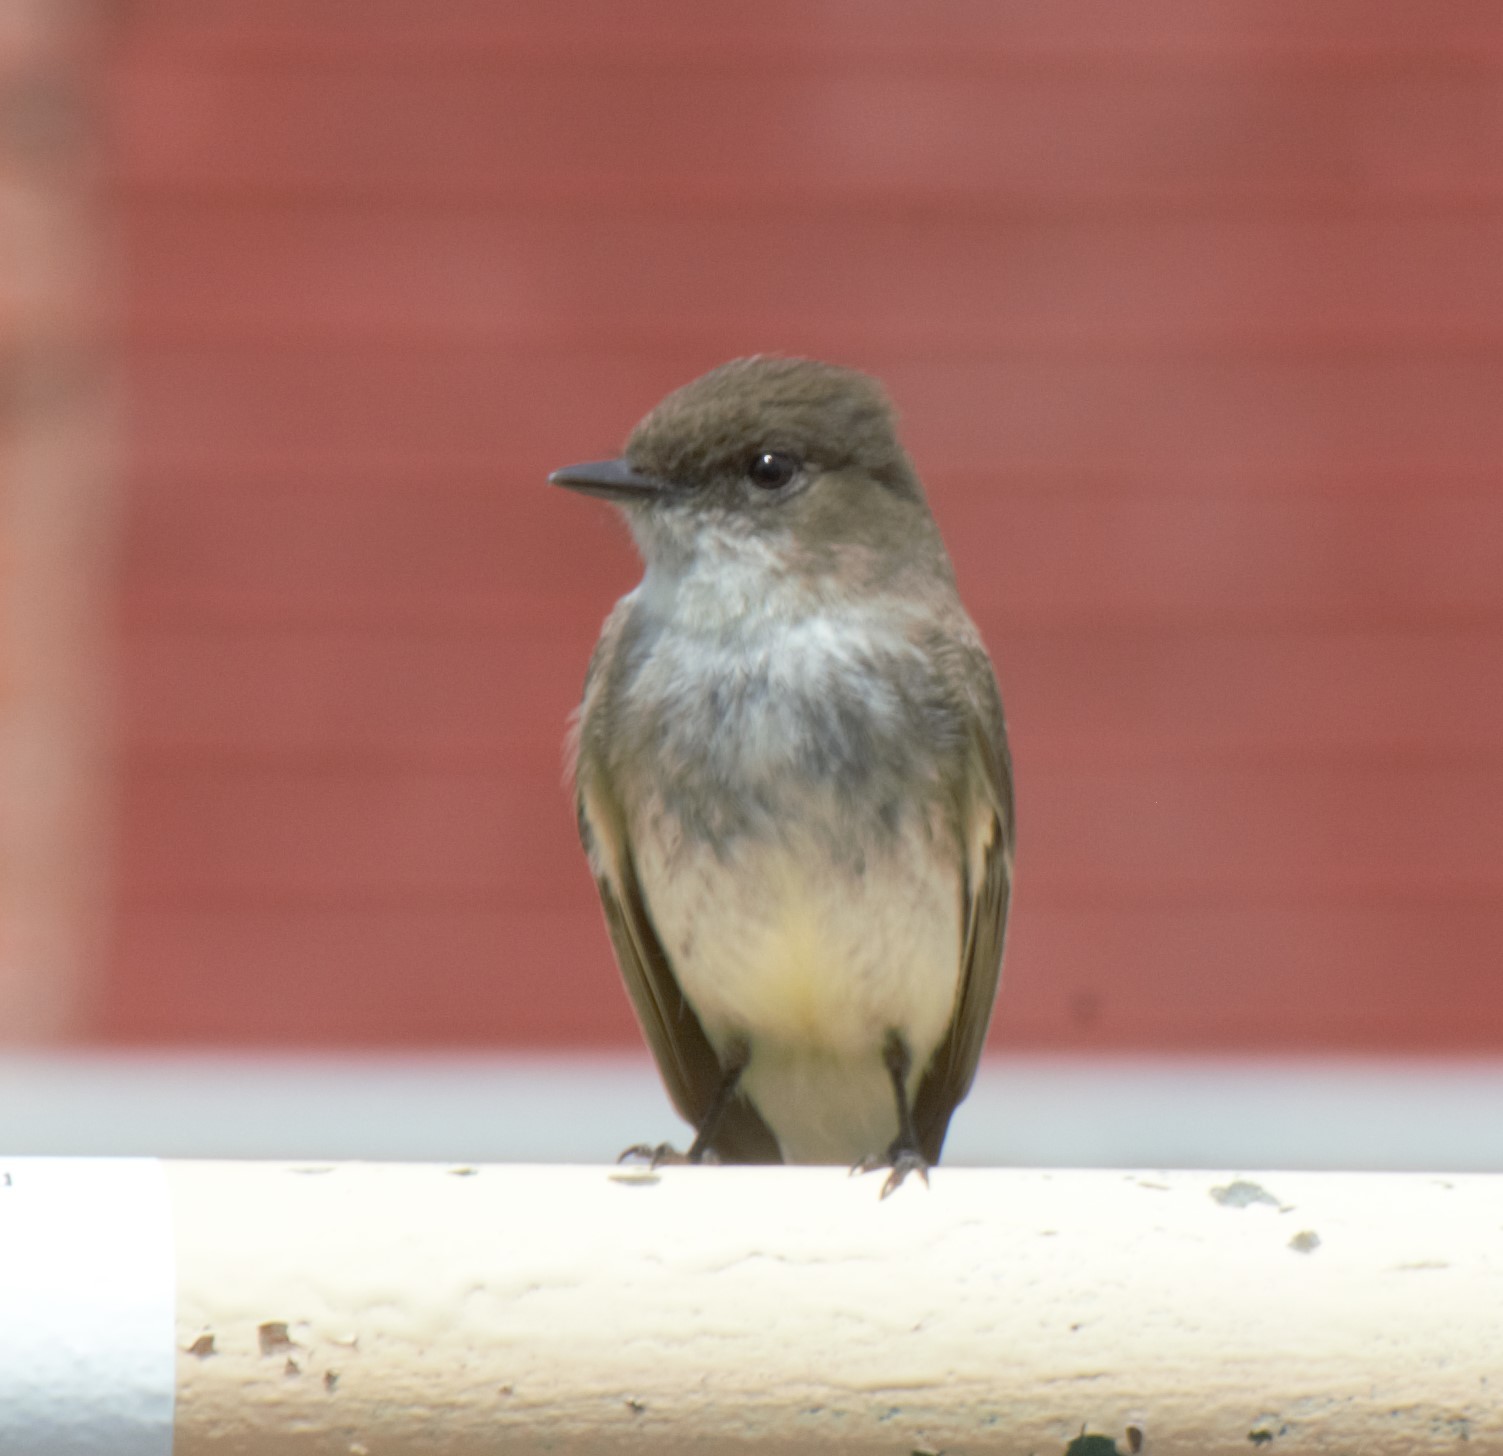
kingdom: Animalia
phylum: Chordata
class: Aves
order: Passeriformes
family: Tyrannidae
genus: Sayornis
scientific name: Sayornis phoebe
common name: Eastern phoebe
